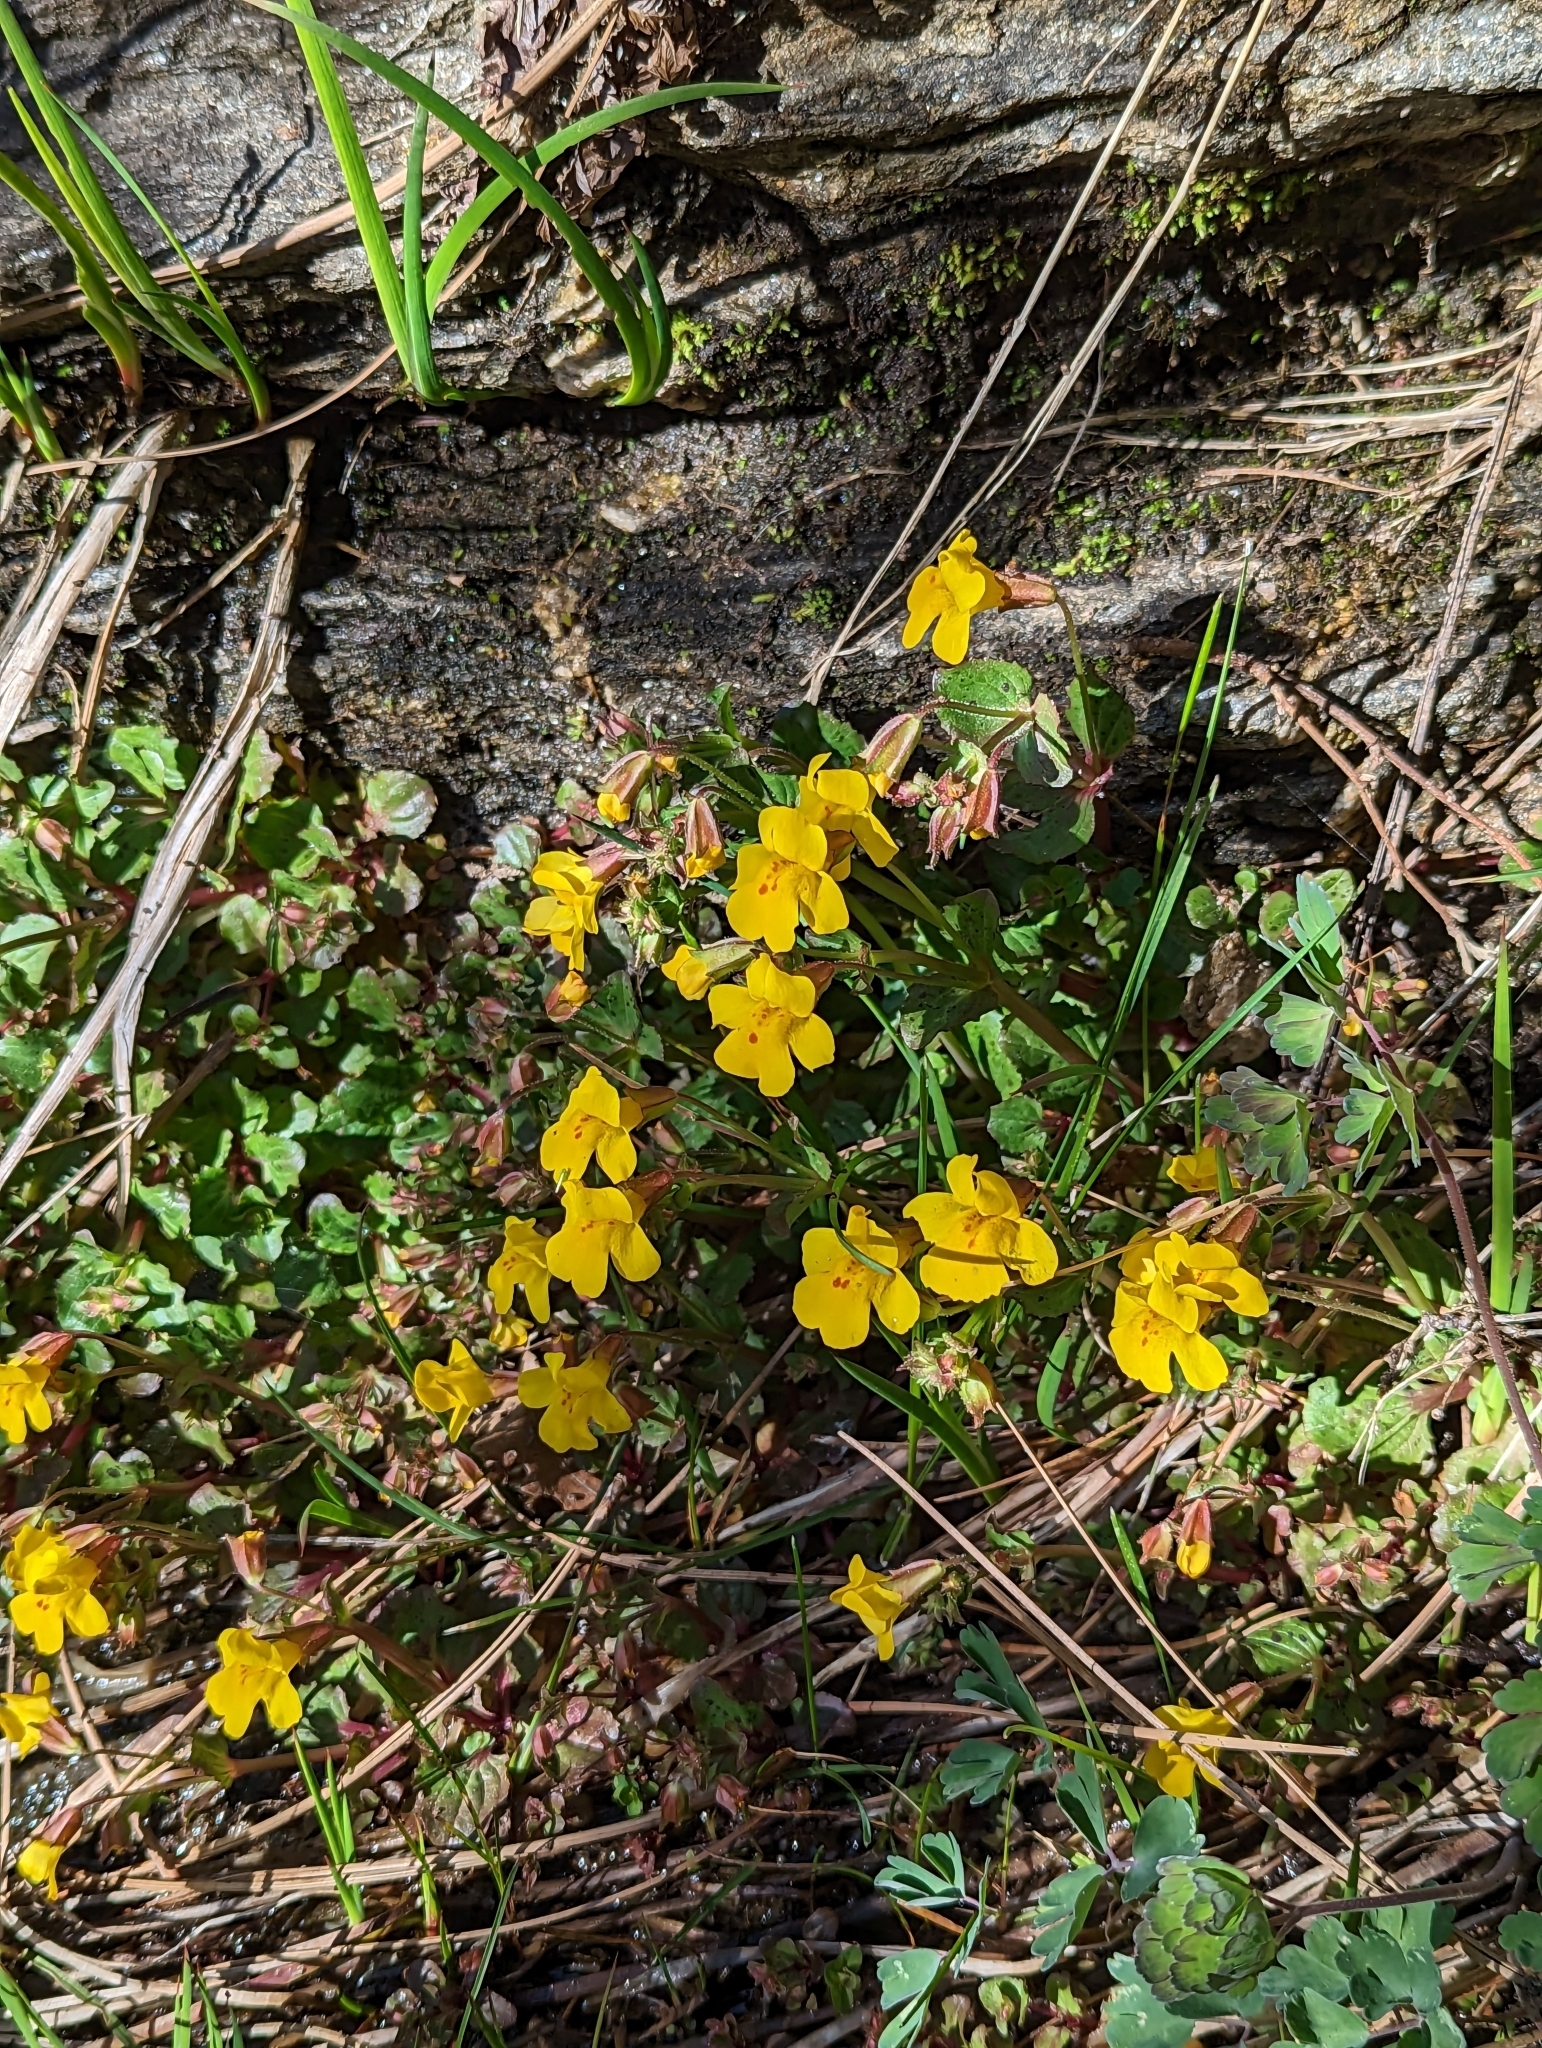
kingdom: Plantae
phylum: Tracheophyta
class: Magnoliopsida
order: Lamiales
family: Phrymaceae
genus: Erythranthe
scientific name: Erythranthe guttata
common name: Monkeyflower
